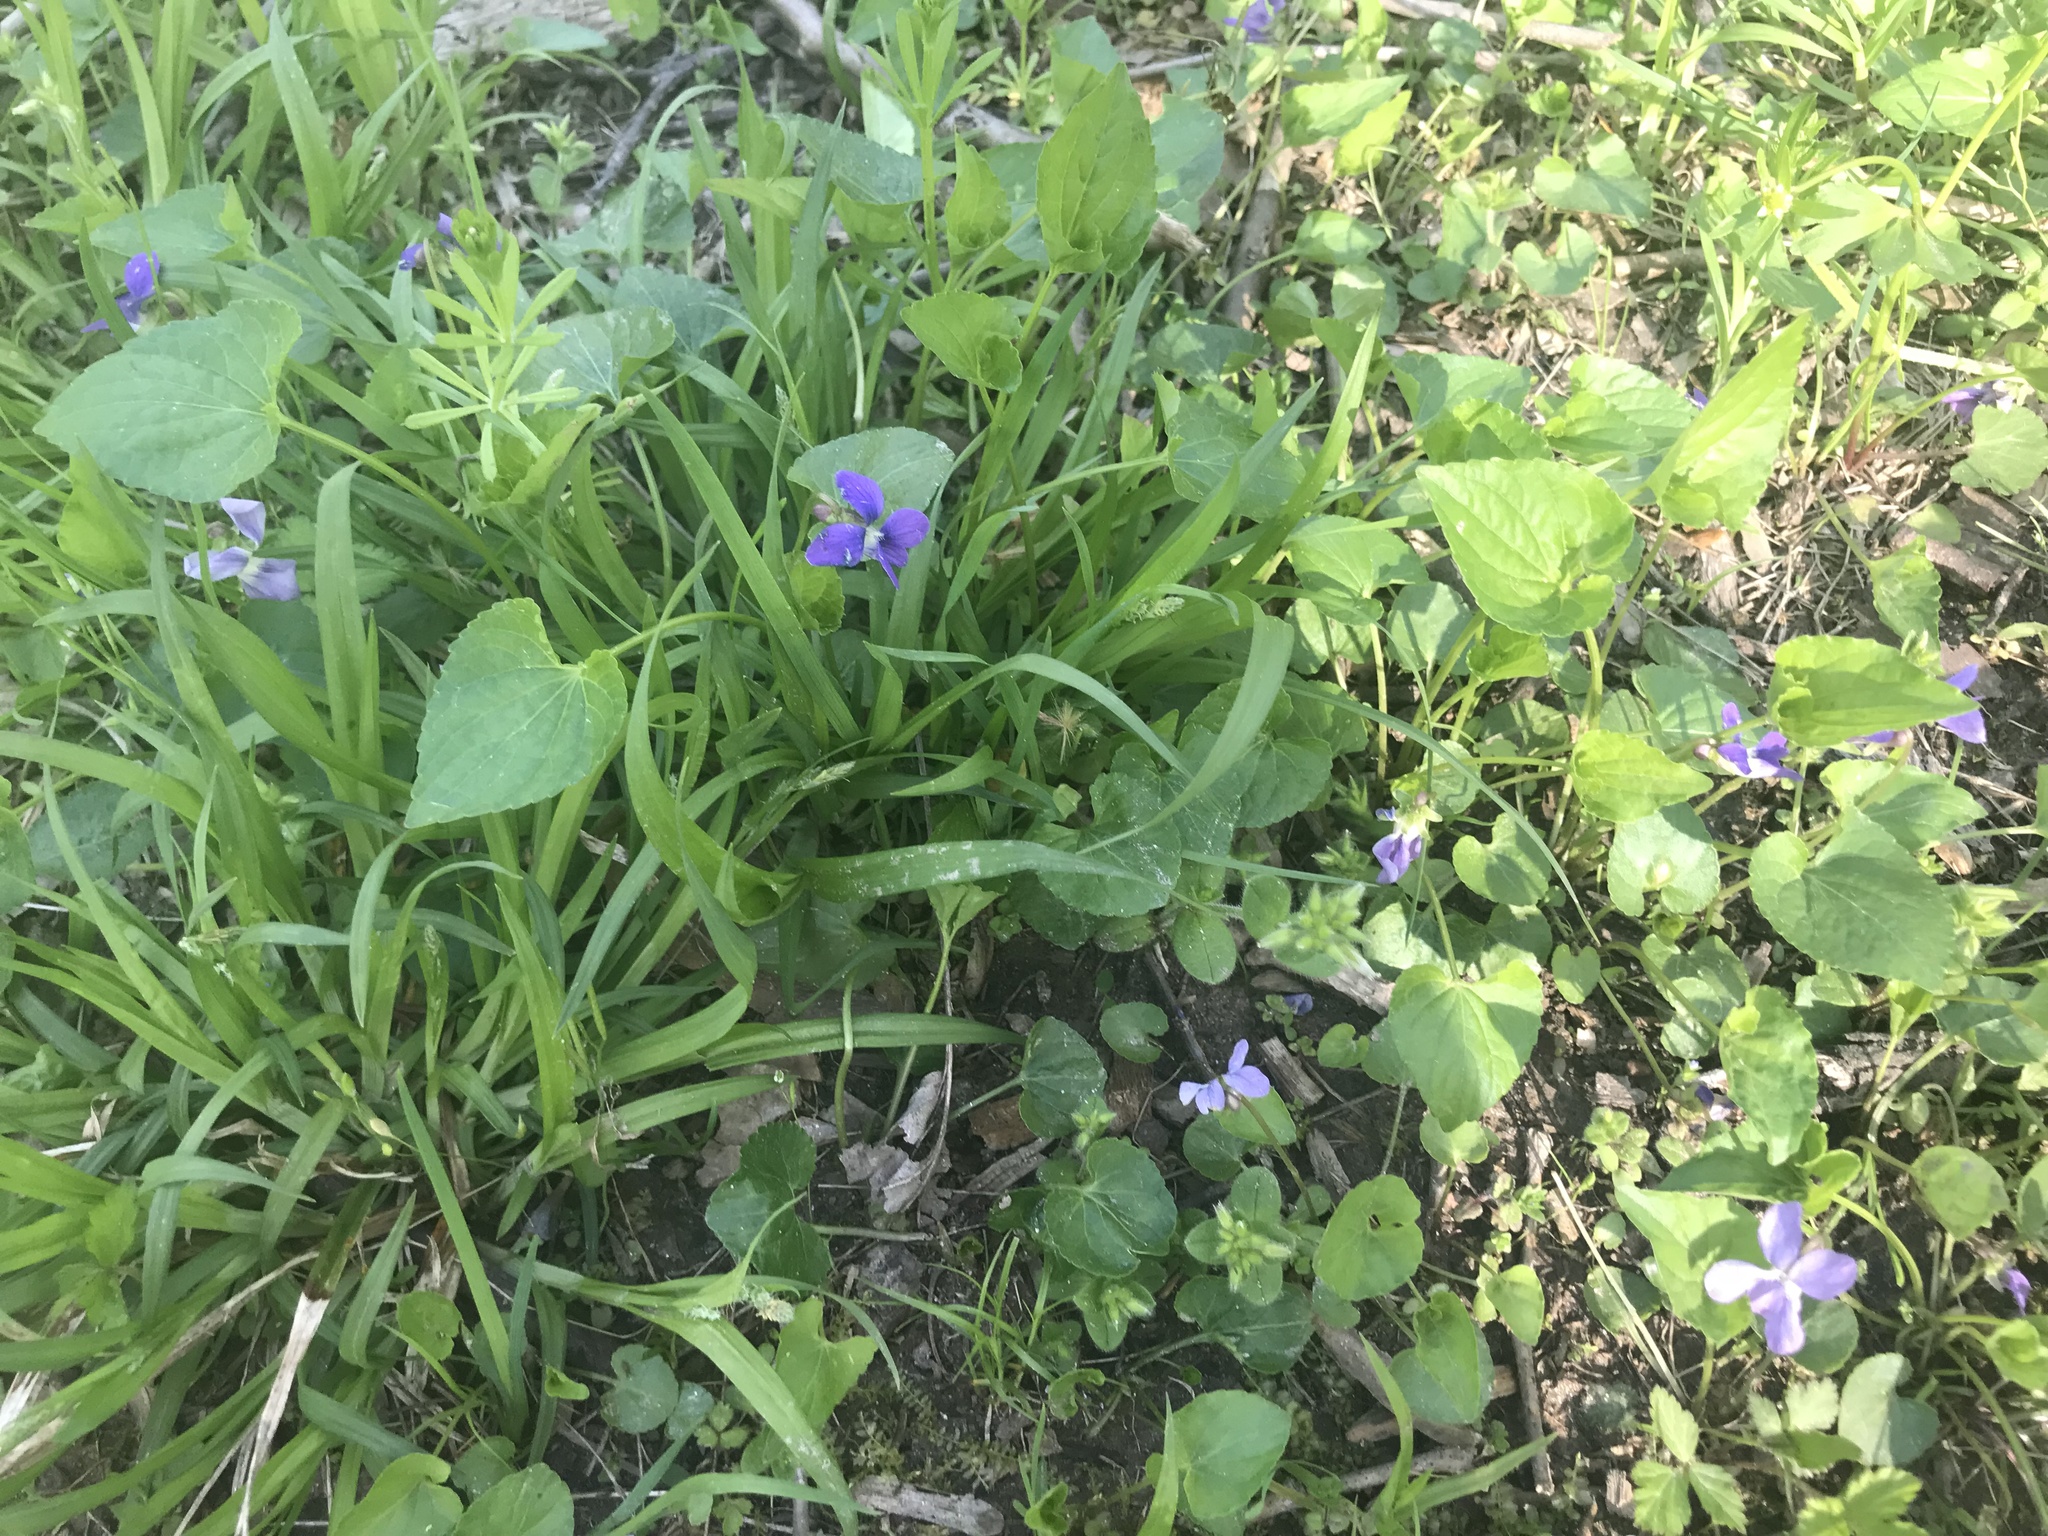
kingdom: Plantae
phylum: Tracheophyta
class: Magnoliopsida
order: Malpighiales
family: Violaceae
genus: Viola
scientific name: Viola sororia
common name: Dooryard violet
